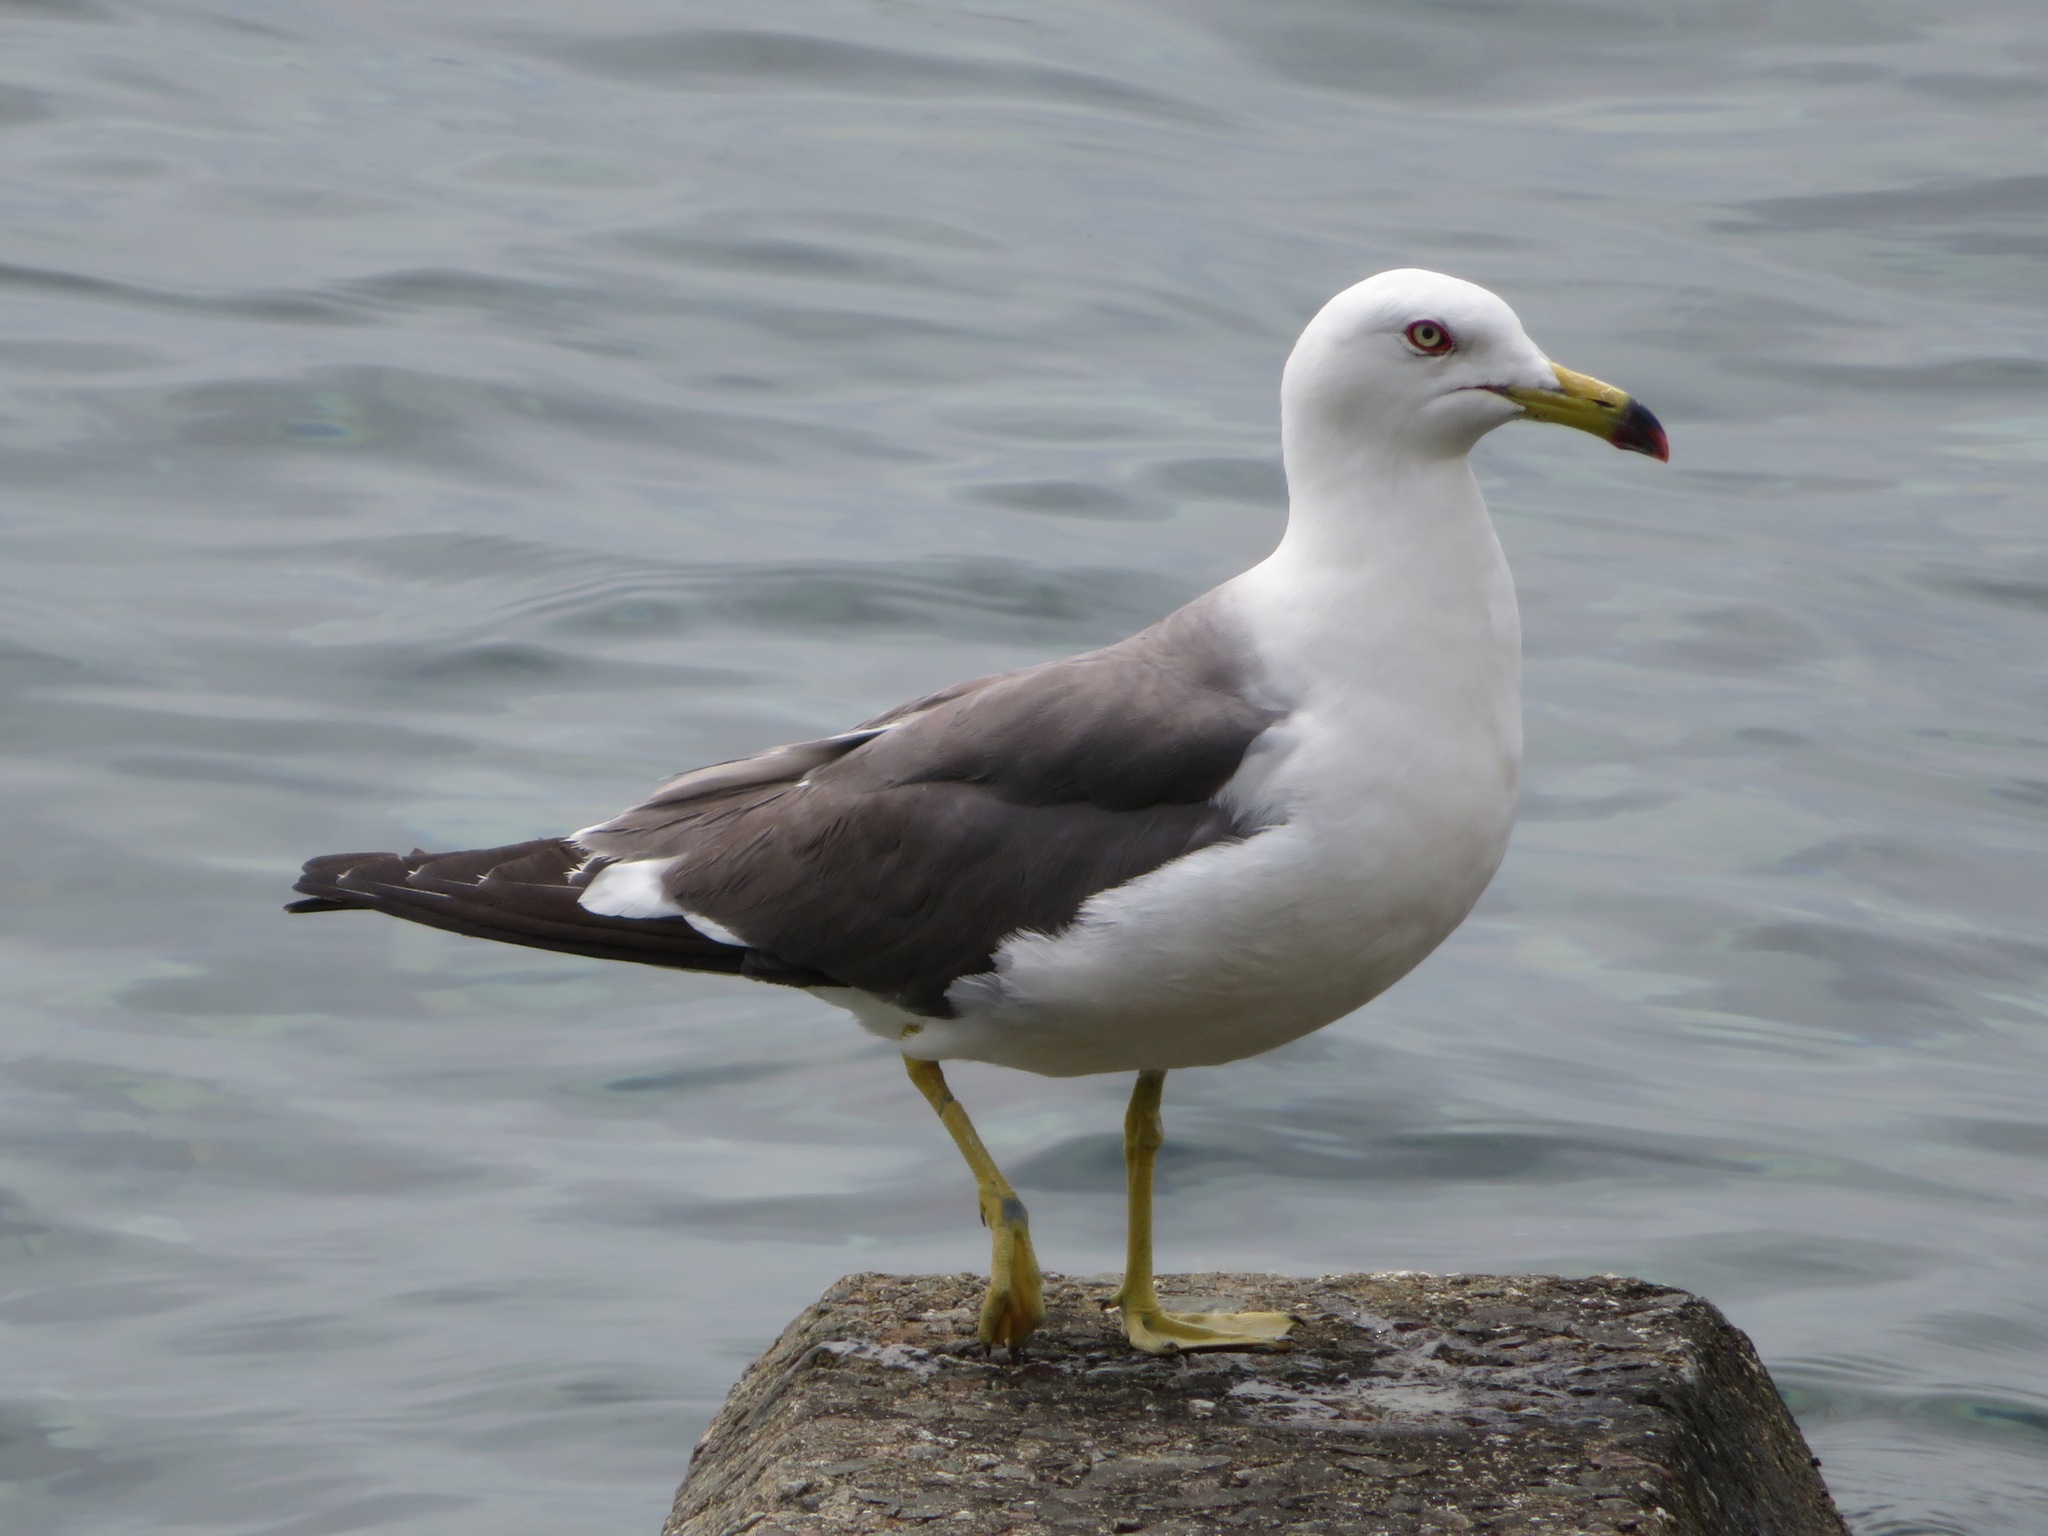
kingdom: Animalia
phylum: Chordata
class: Aves
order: Charadriiformes
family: Laridae
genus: Larus
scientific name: Larus crassirostris
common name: Black-tailed gull
